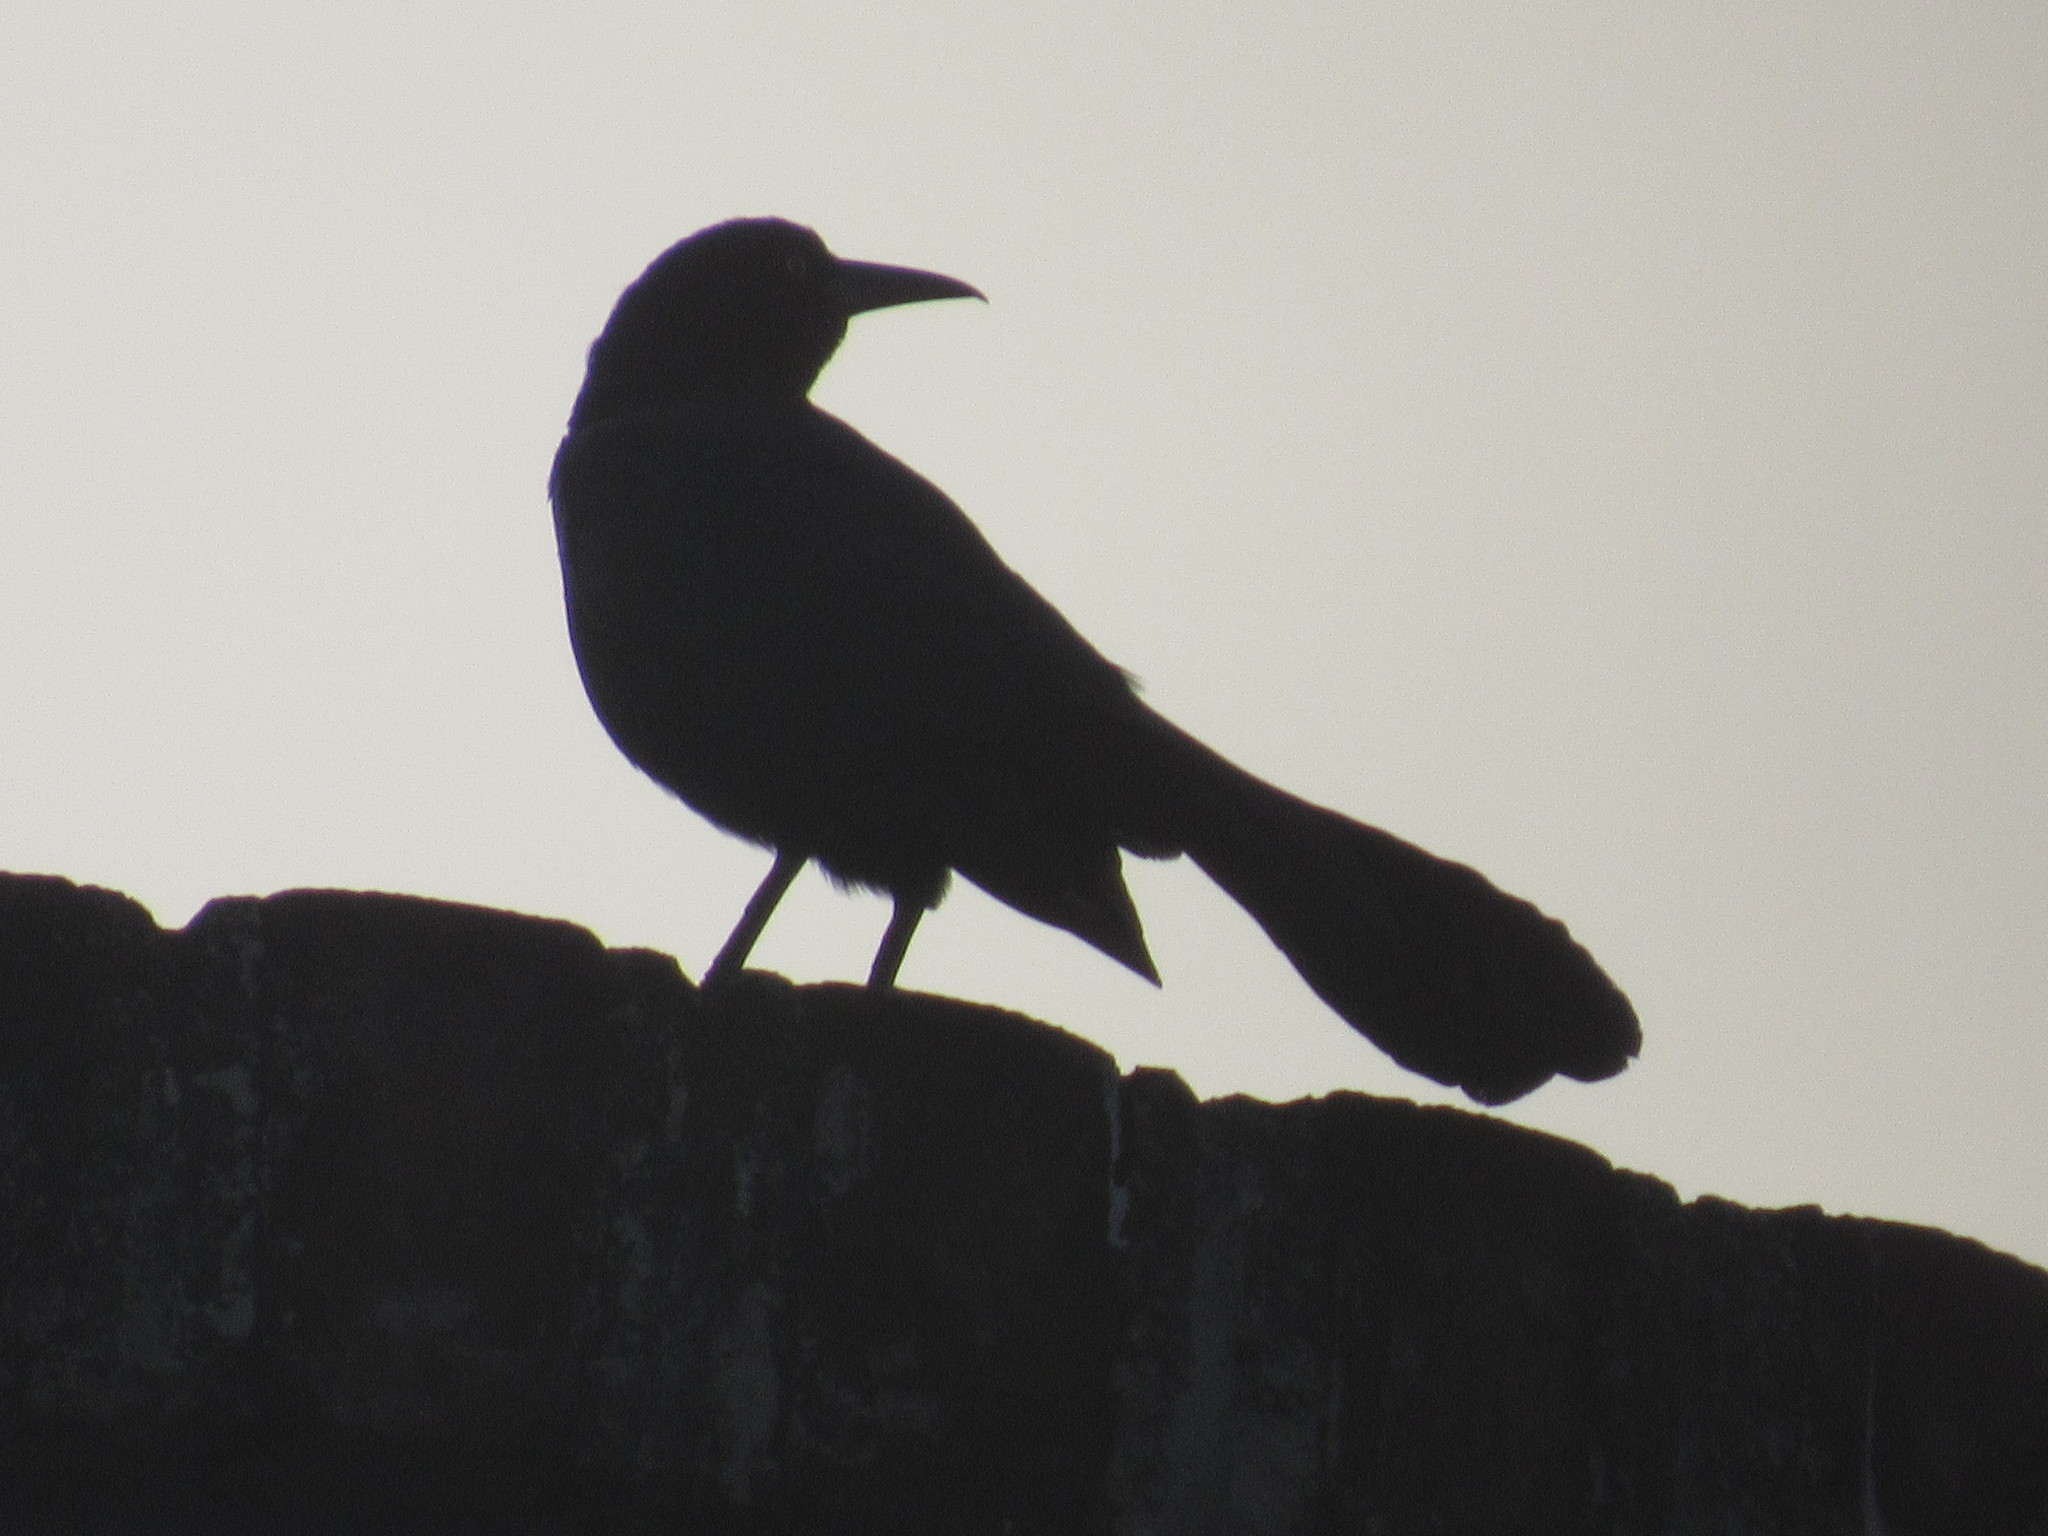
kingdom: Animalia
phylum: Chordata
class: Aves
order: Passeriformes
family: Icteridae
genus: Quiscalus
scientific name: Quiscalus mexicanus
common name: Great-tailed grackle
